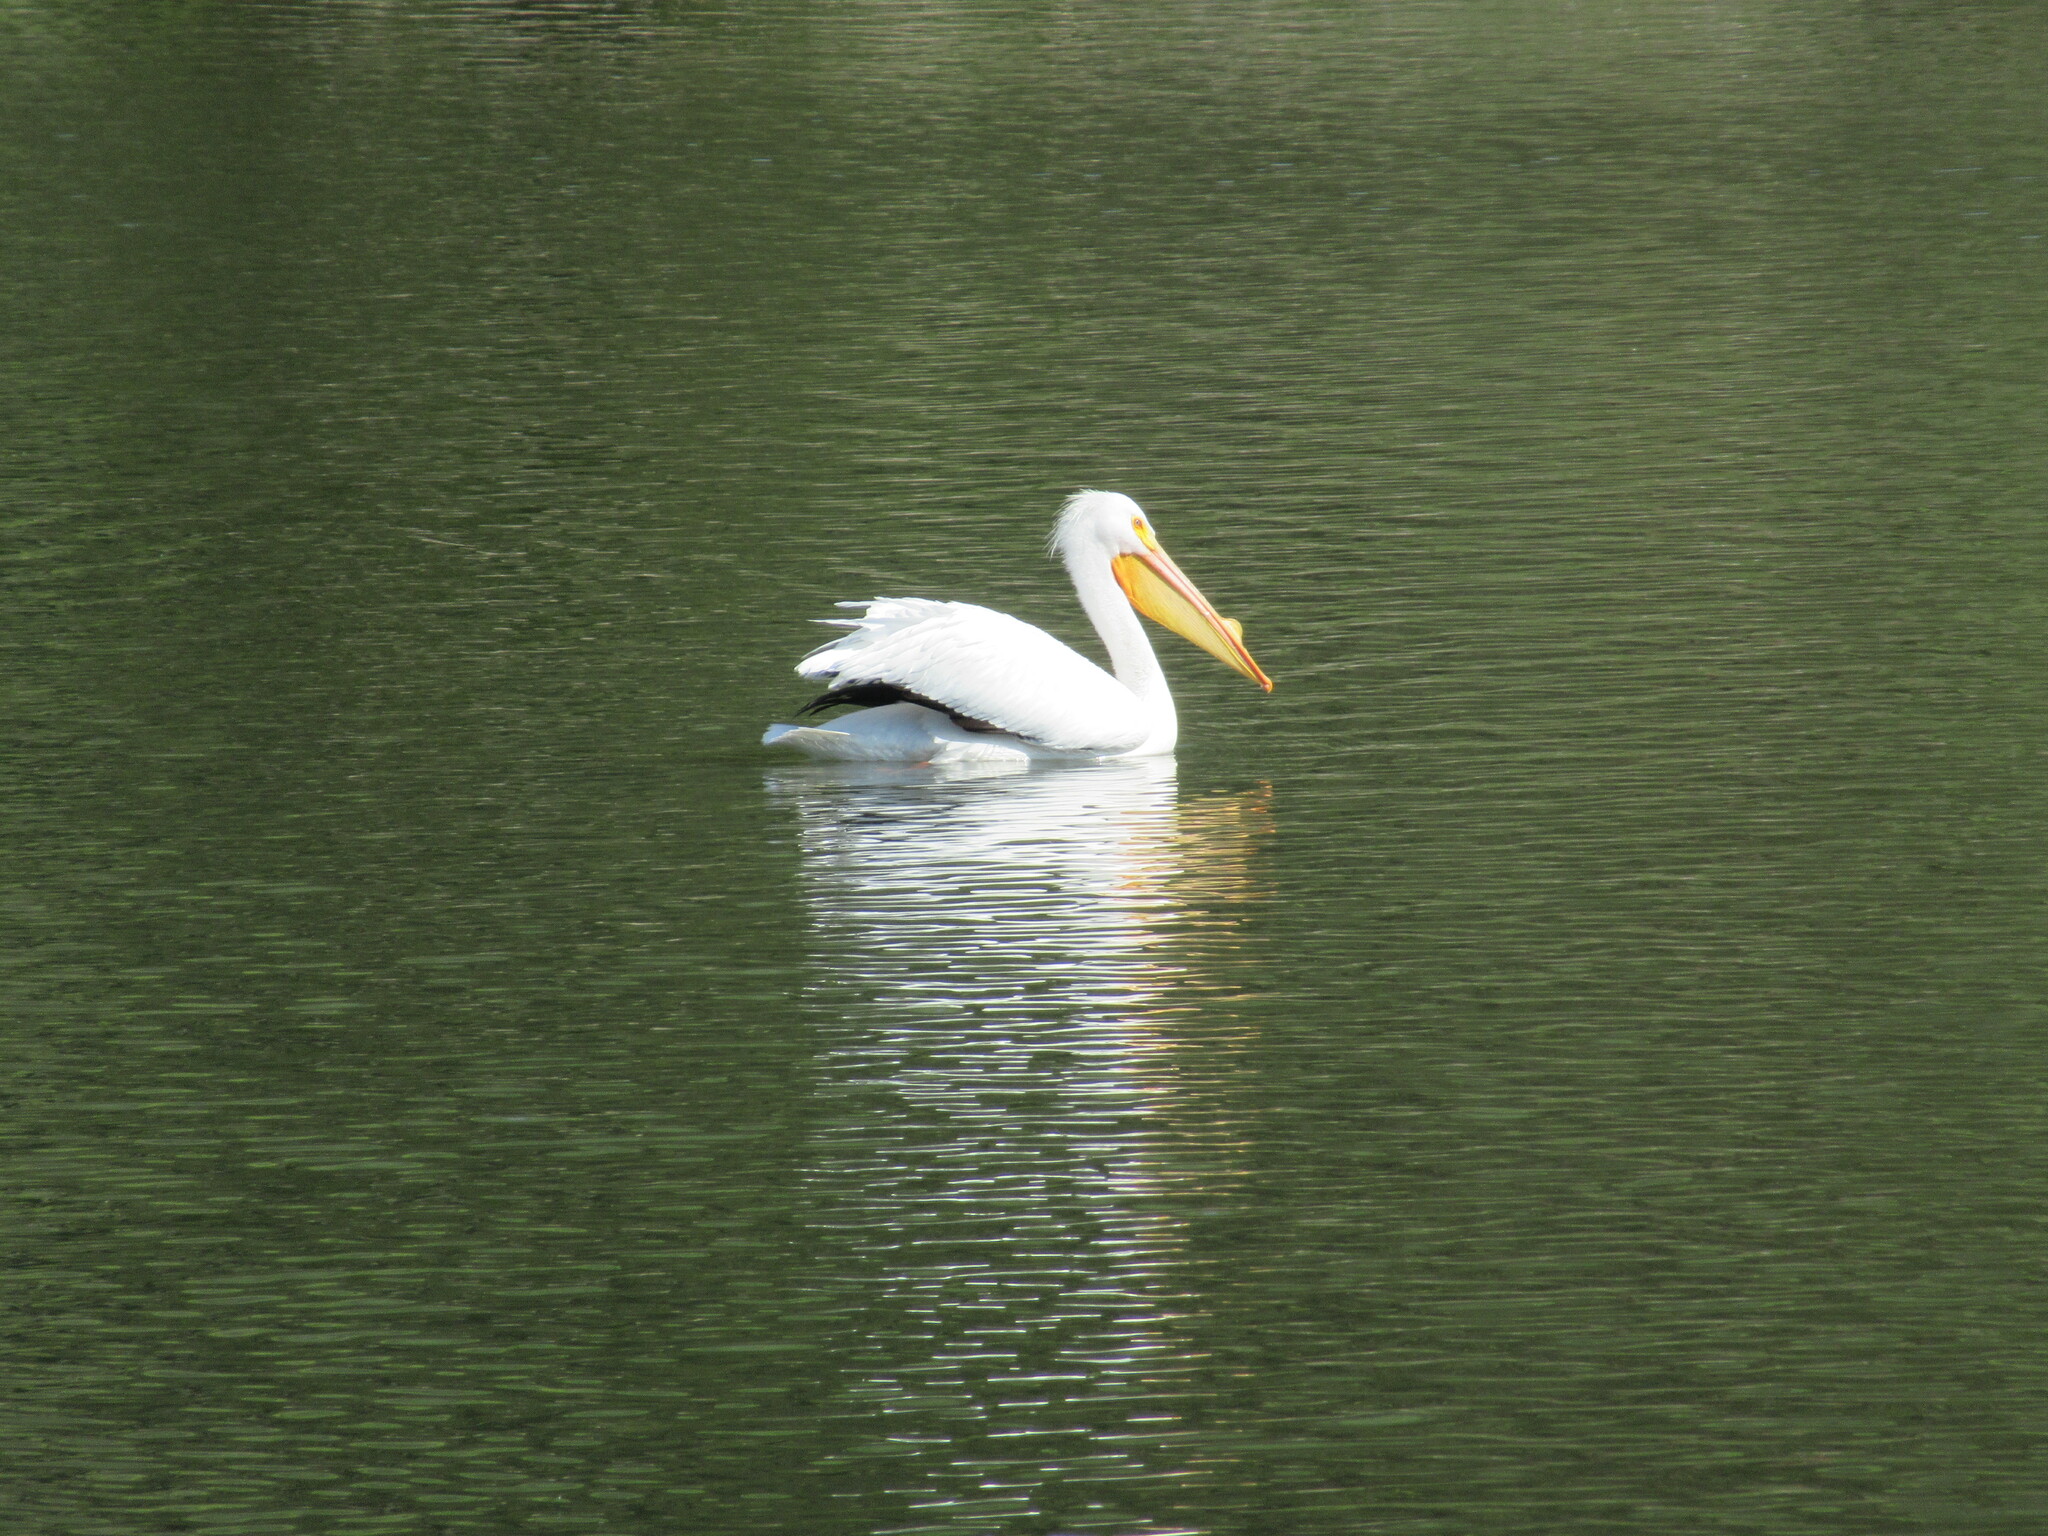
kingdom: Animalia
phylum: Chordata
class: Aves
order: Pelecaniformes
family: Pelecanidae
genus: Pelecanus
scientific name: Pelecanus erythrorhynchos
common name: American white pelican
